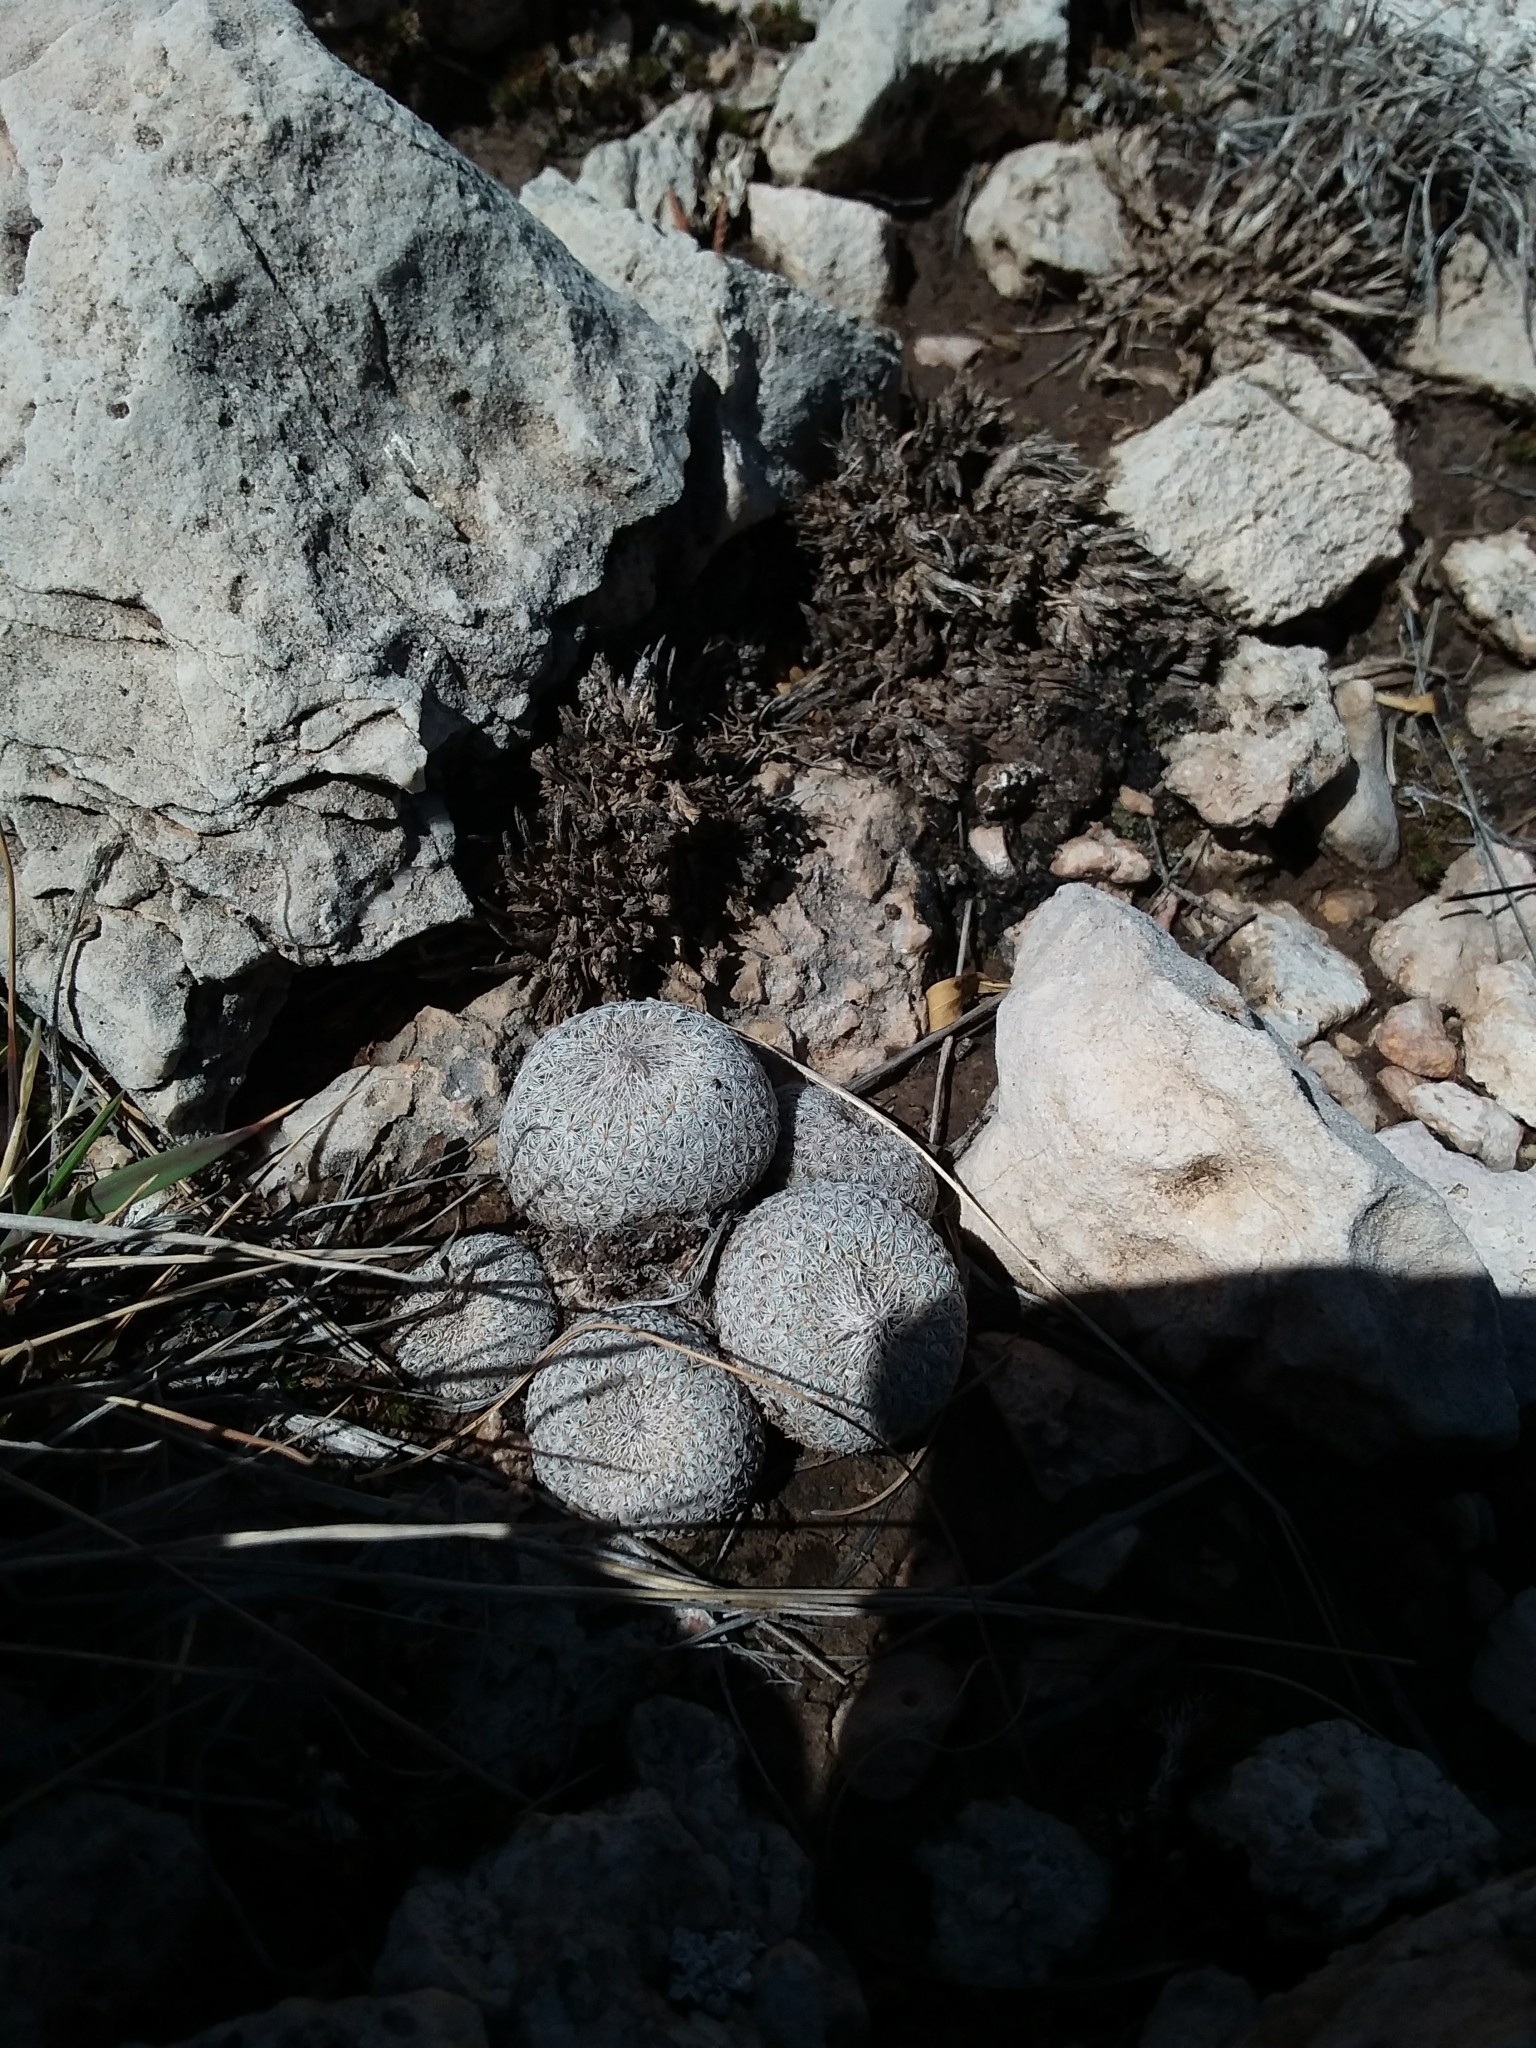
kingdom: Plantae
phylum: Tracheophyta
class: Magnoliopsida
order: Caryophyllales
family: Cactaceae
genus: Epithelantha
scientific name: Epithelantha micromeris
